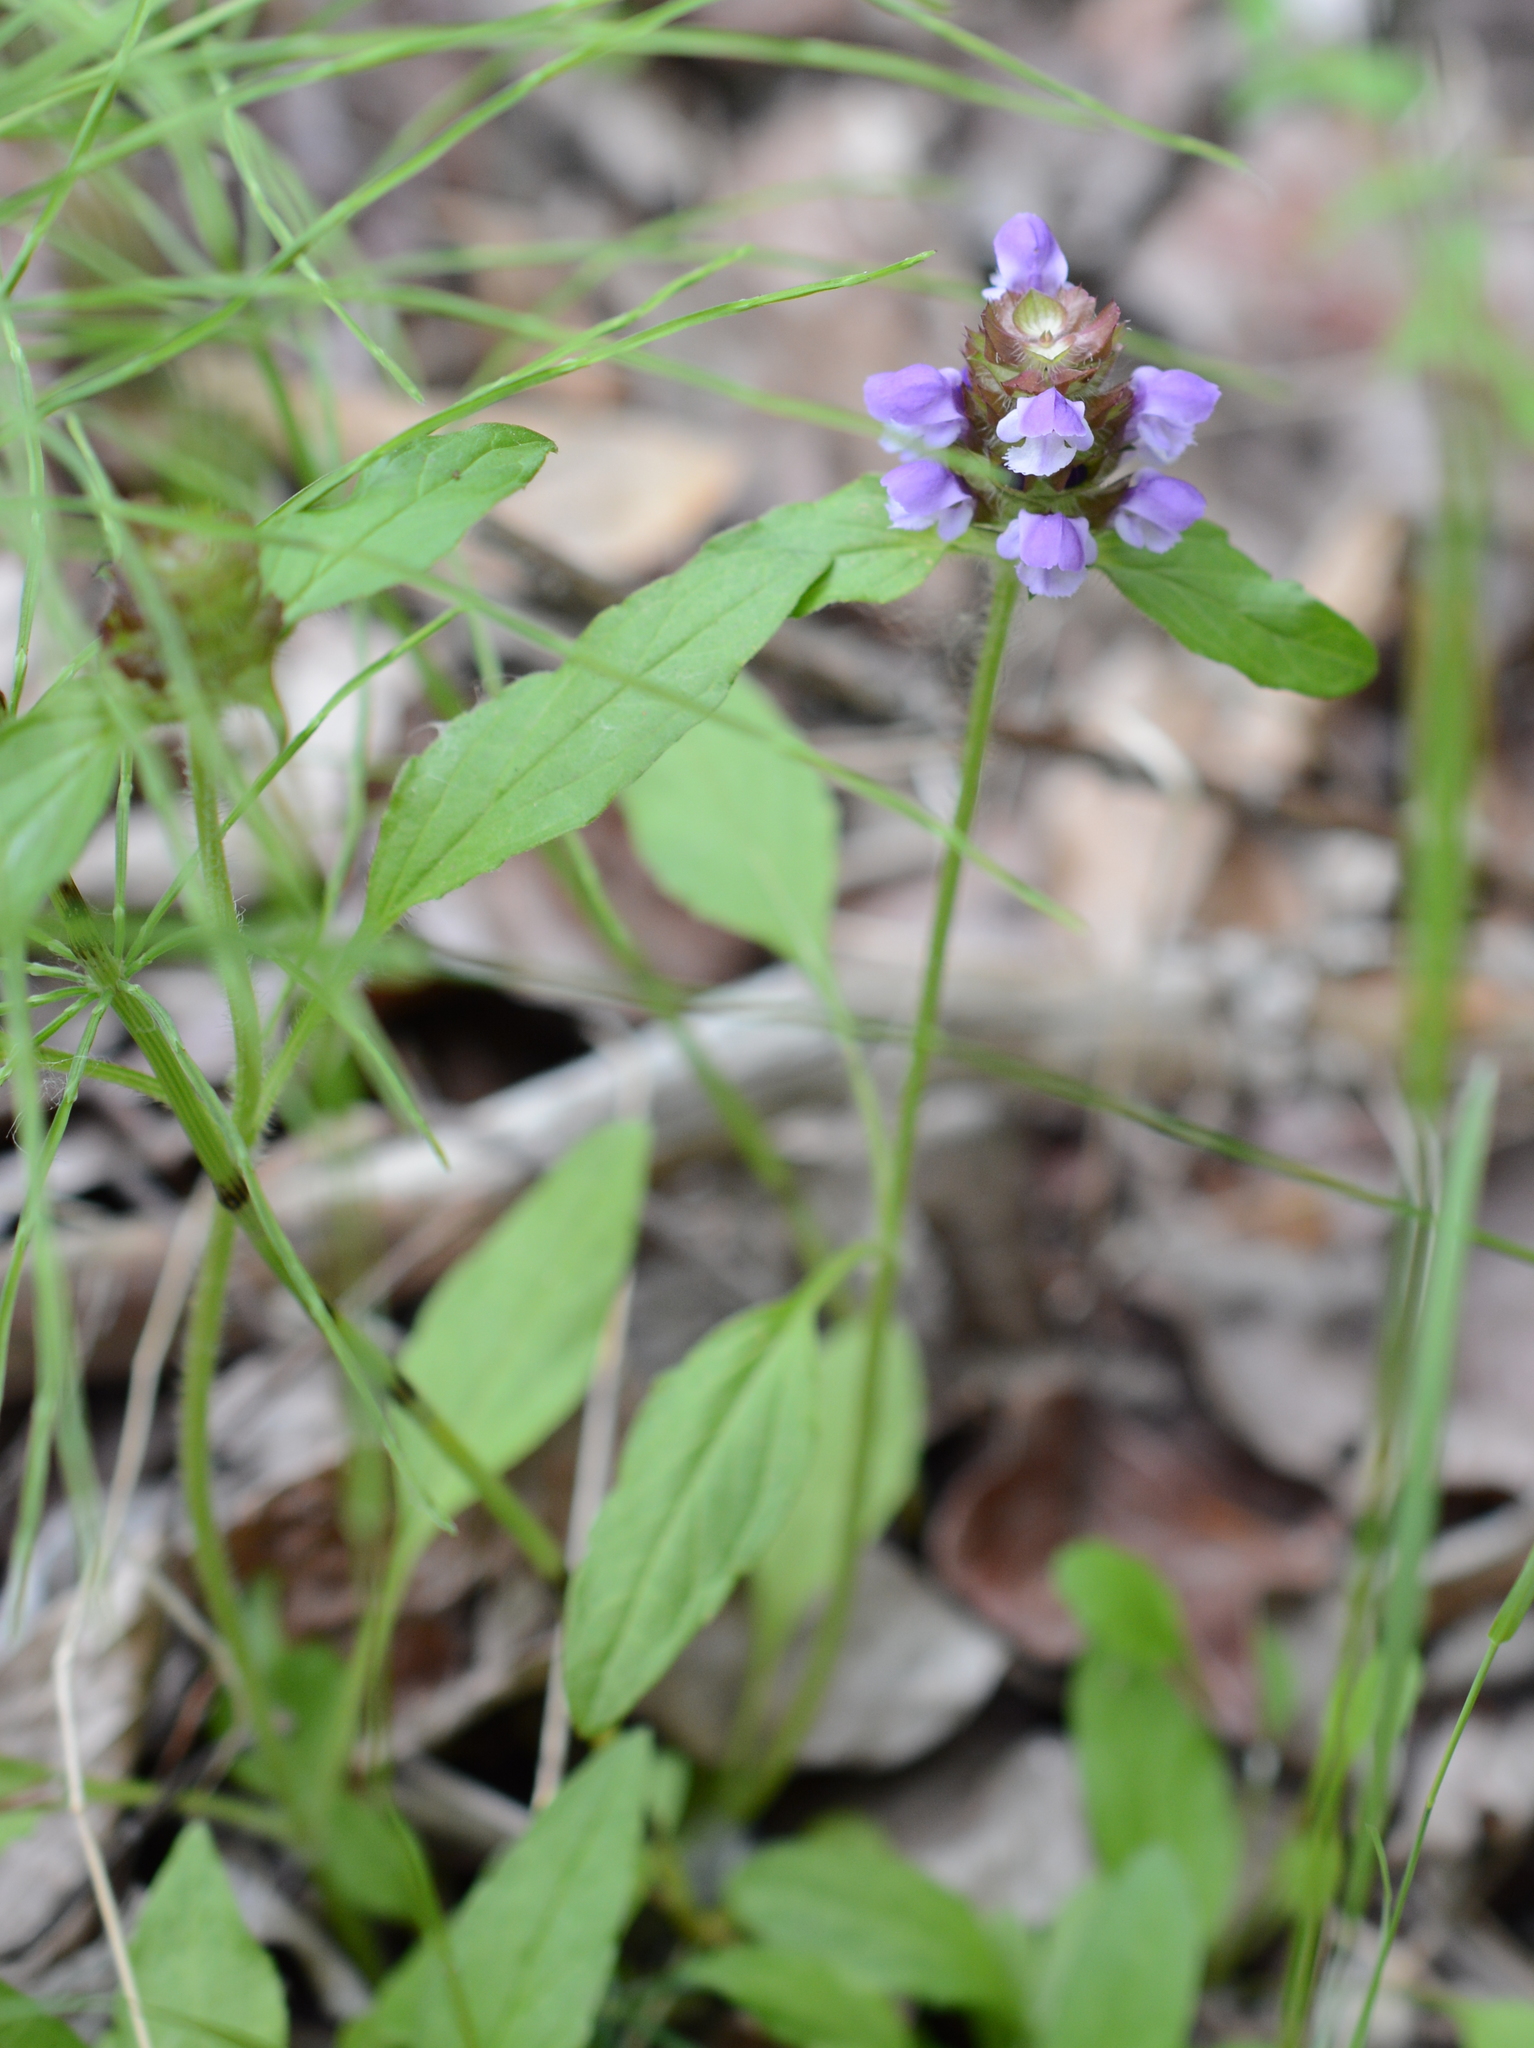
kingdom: Plantae
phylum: Tracheophyta
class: Magnoliopsida
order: Lamiales
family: Lamiaceae
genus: Prunella
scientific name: Prunella vulgaris
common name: Heal-all
